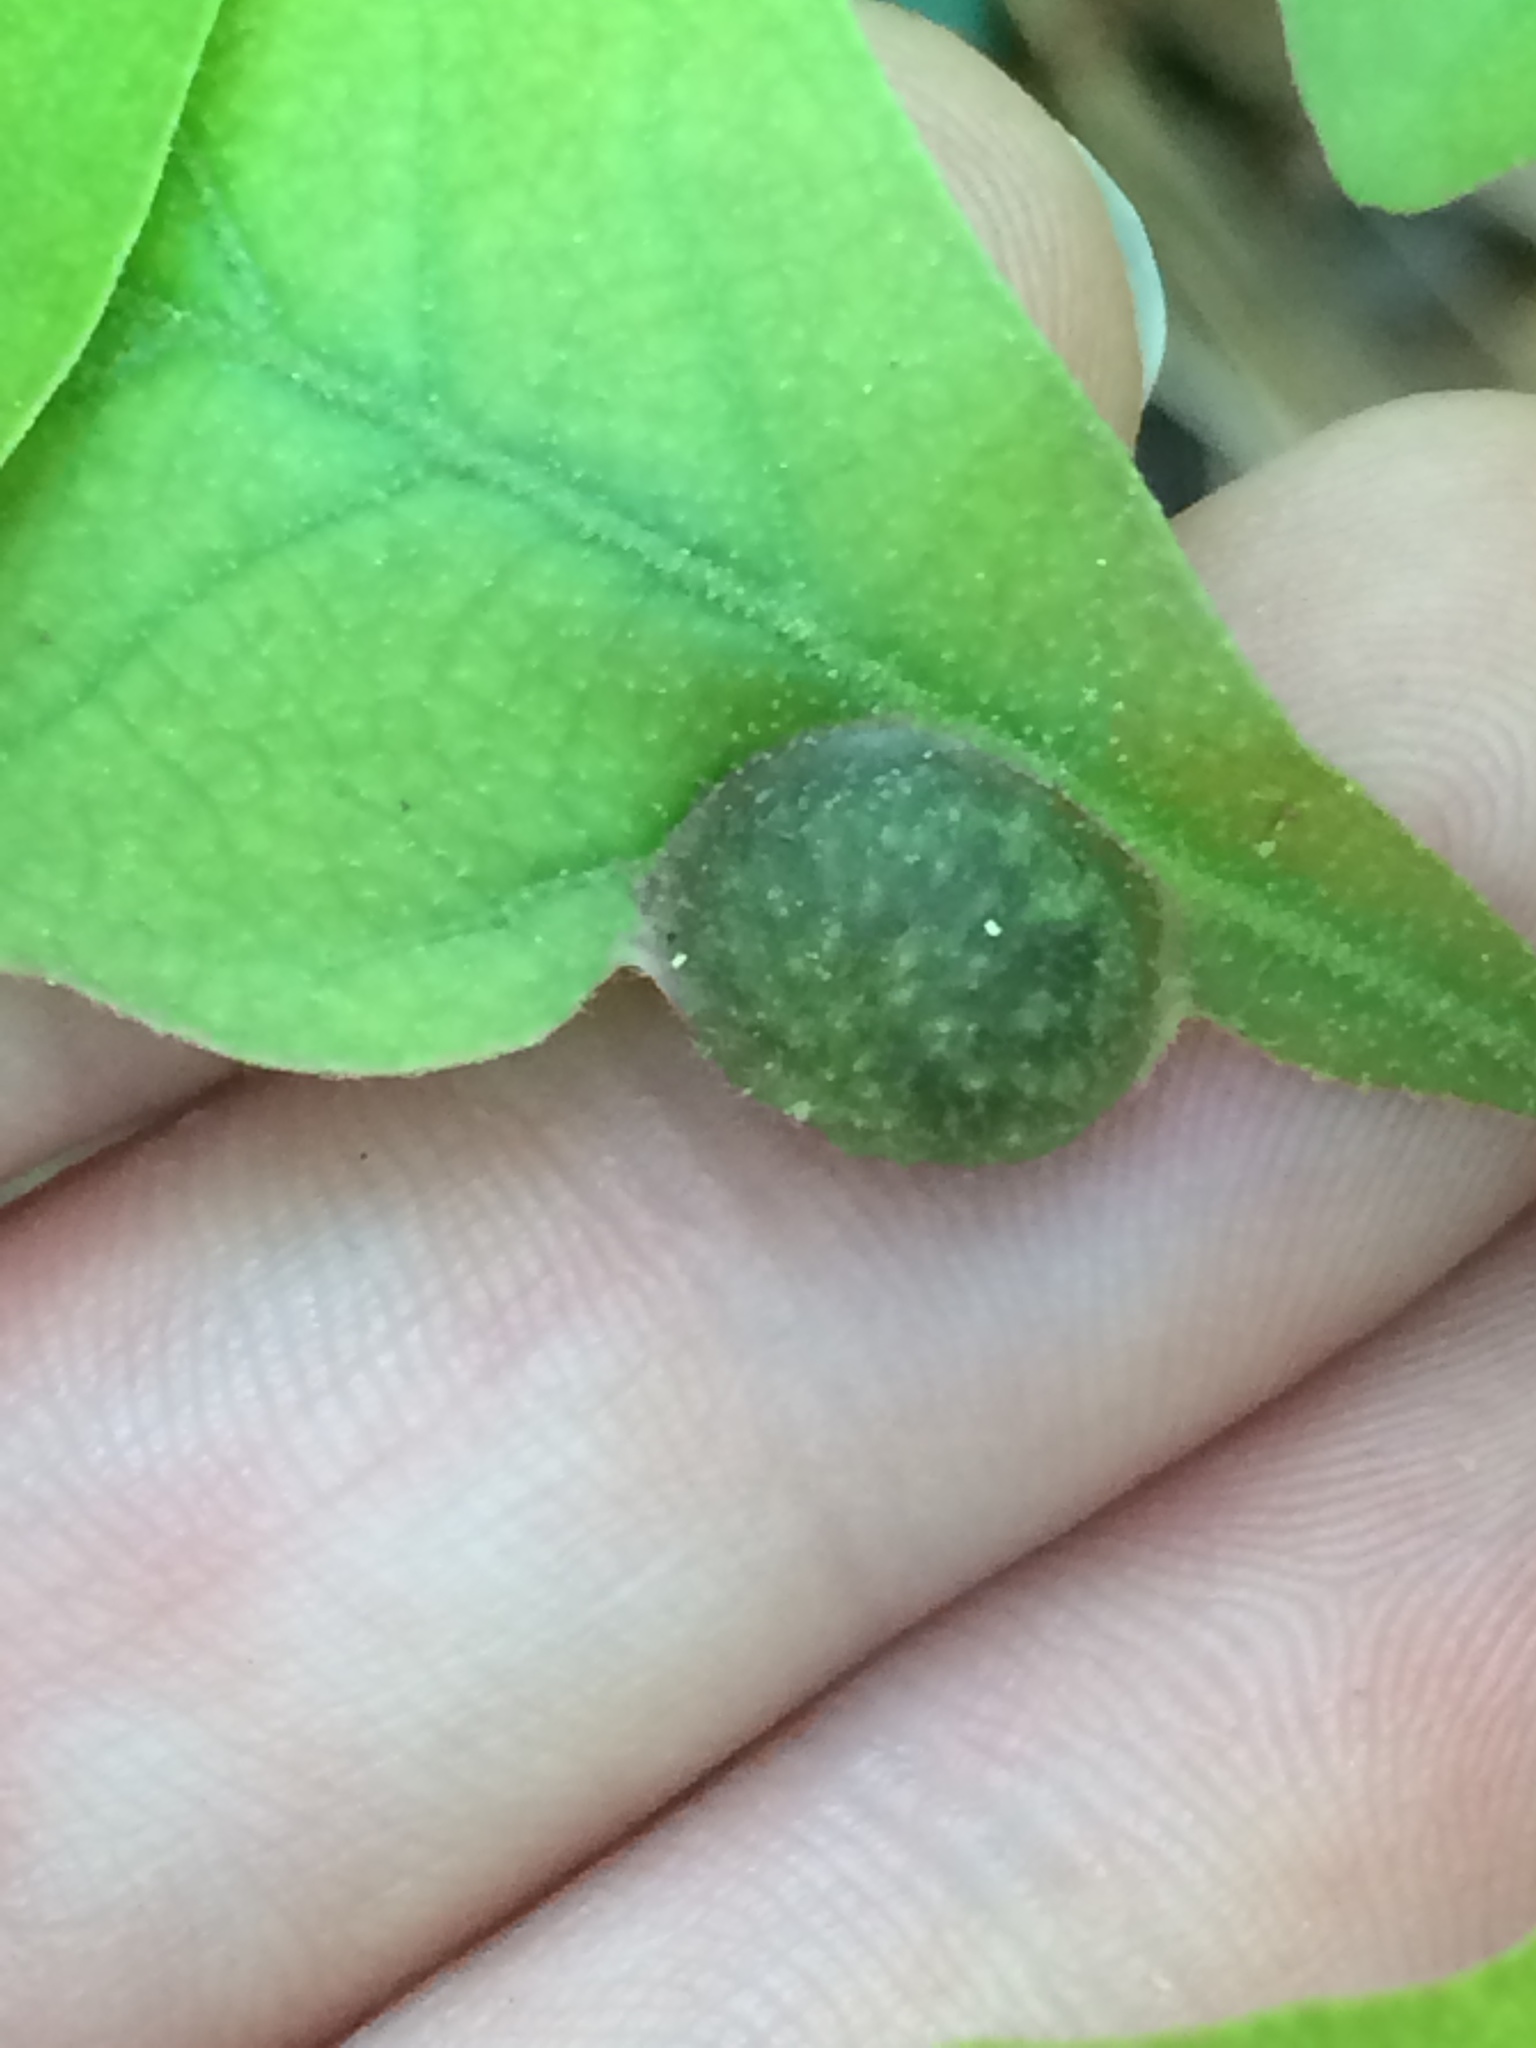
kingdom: Animalia
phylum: Arthropoda
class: Insecta
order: Hymenoptera
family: Cynipidae
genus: Dryocosmus
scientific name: Dryocosmus quercuspalustris
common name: Succulent oak gall wasp
